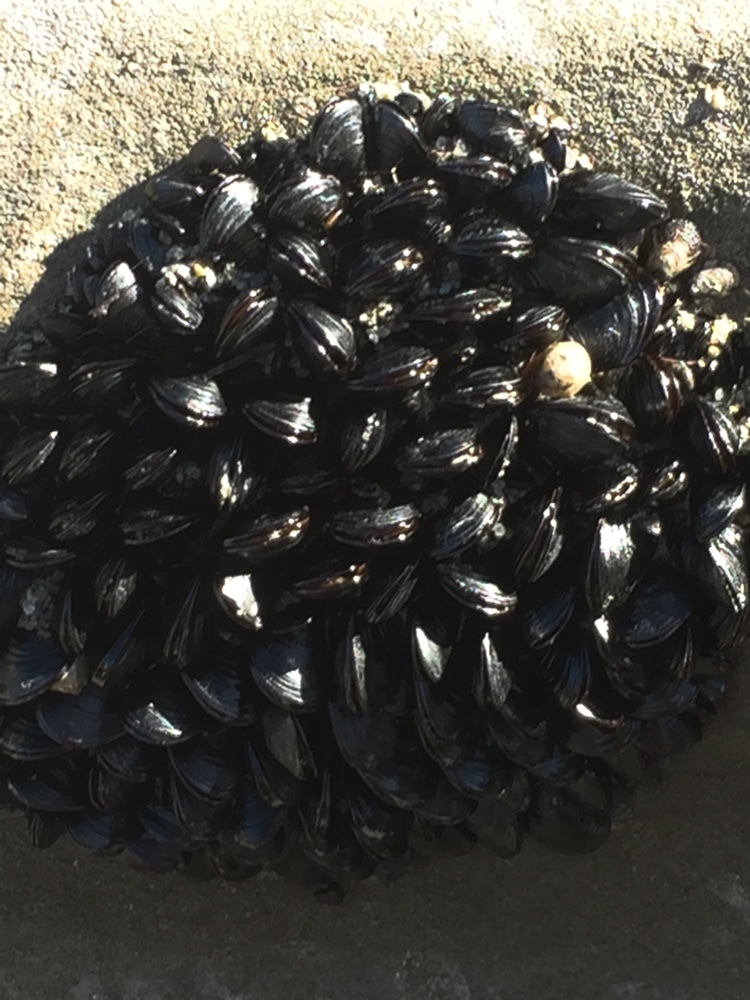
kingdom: Animalia
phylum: Mollusca
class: Bivalvia
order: Mytilida
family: Mytilidae
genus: Xenostrobus
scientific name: Xenostrobus neozelanicus
